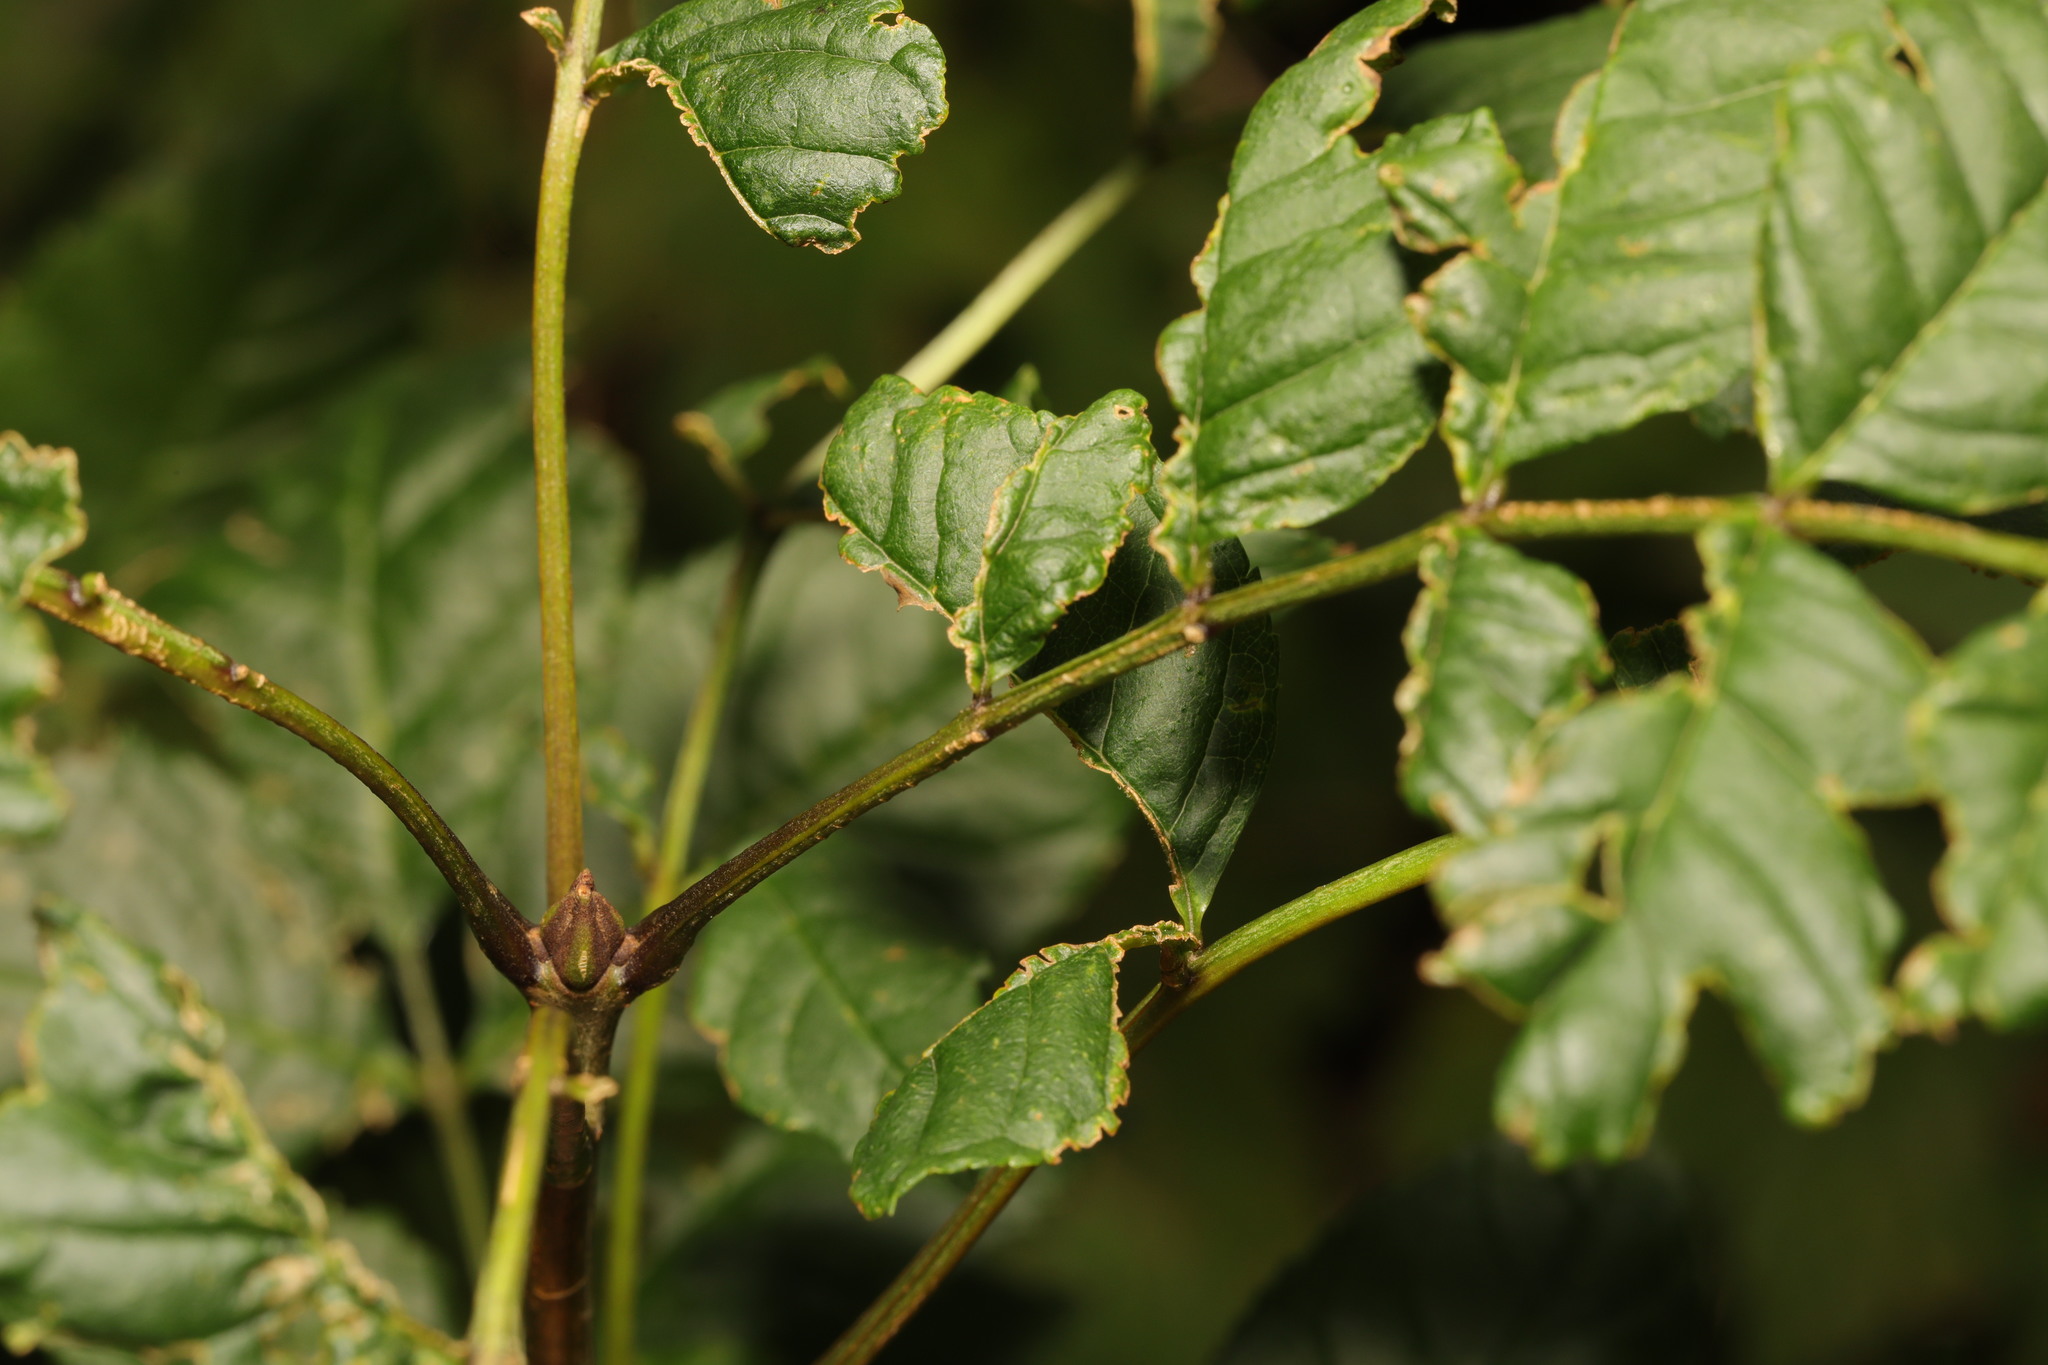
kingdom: Plantae
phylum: Tracheophyta
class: Magnoliopsida
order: Lamiales
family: Oleaceae
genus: Fraxinus
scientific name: Fraxinus excelsior
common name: European ash
